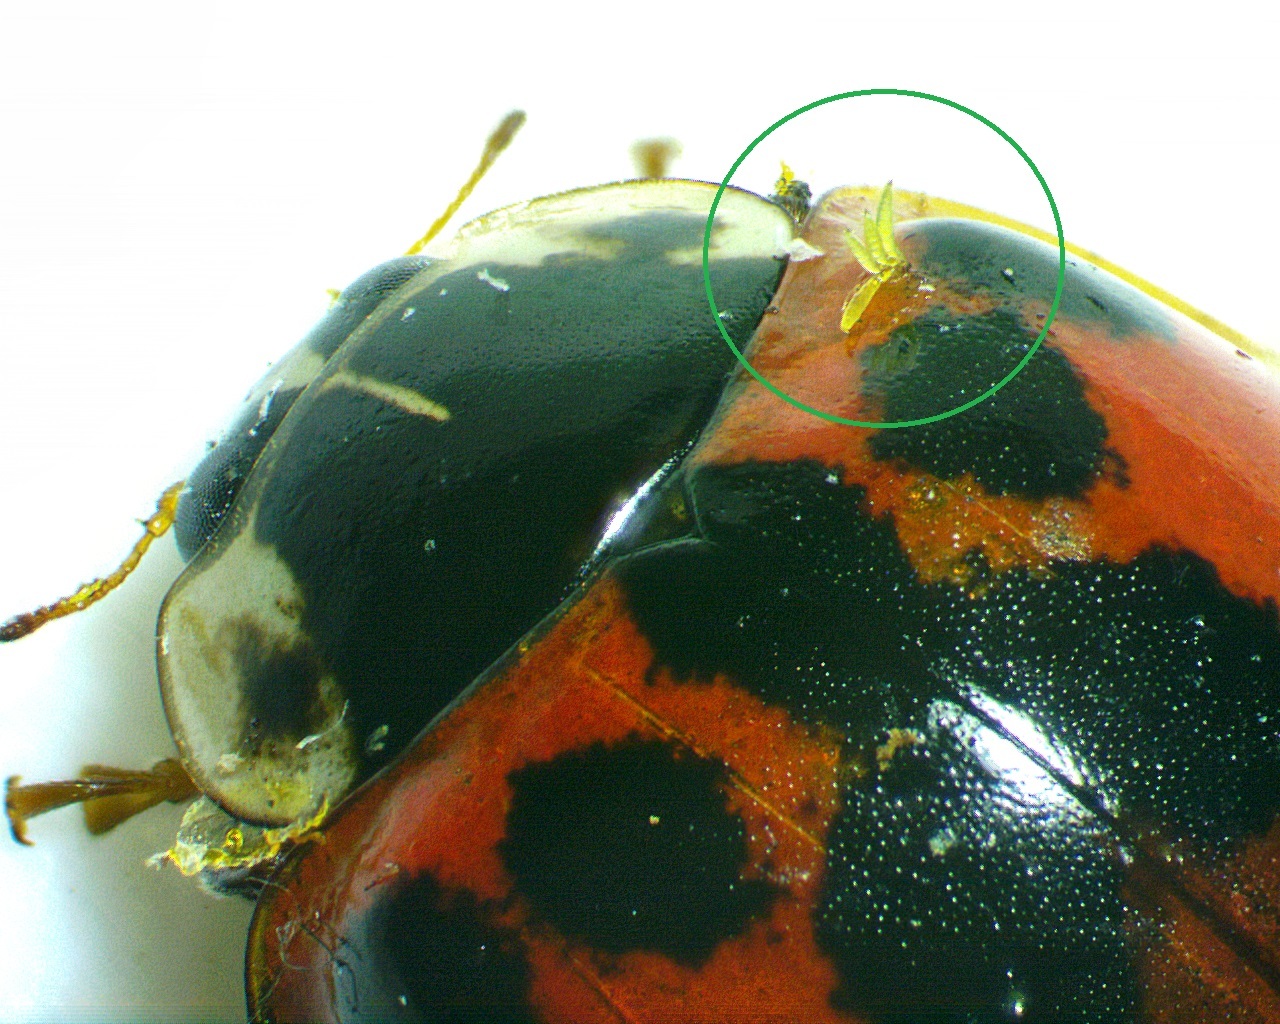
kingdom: Fungi
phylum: Ascomycota
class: Laboulbeniomycetes
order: Laboulbeniales
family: Laboulbeniaceae
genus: Hesperomyces
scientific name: Hesperomyces harmoniae
